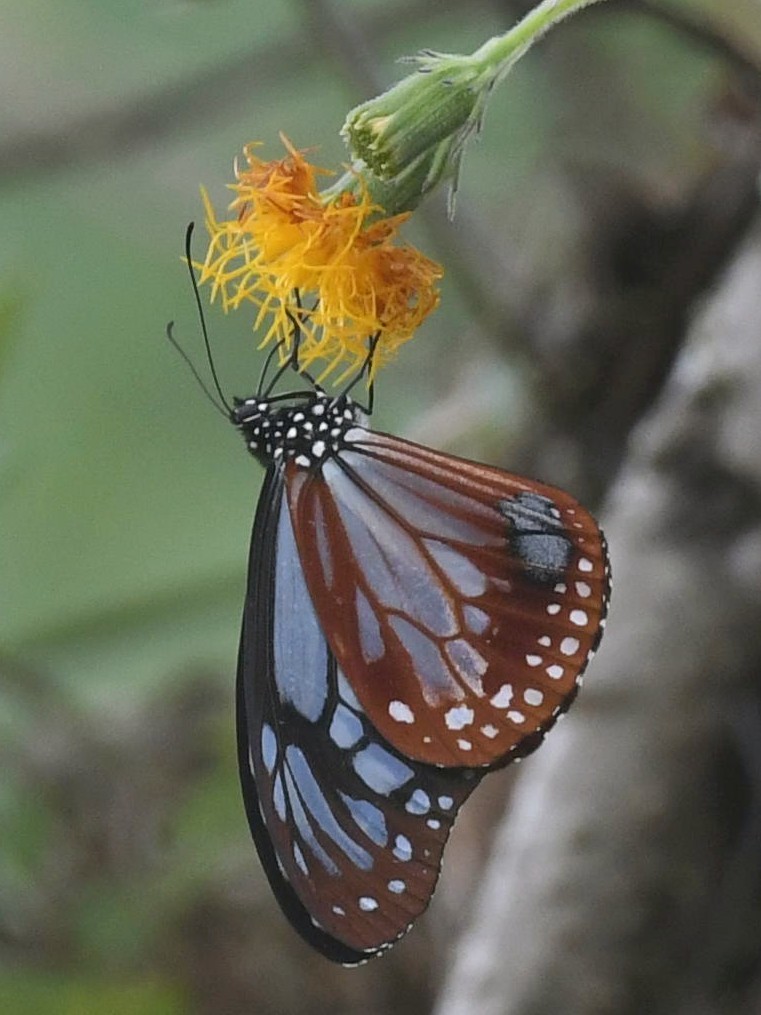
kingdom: Animalia
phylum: Arthropoda
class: Insecta
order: Lepidoptera
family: Nymphalidae
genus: Parantica
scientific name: Parantica sita
